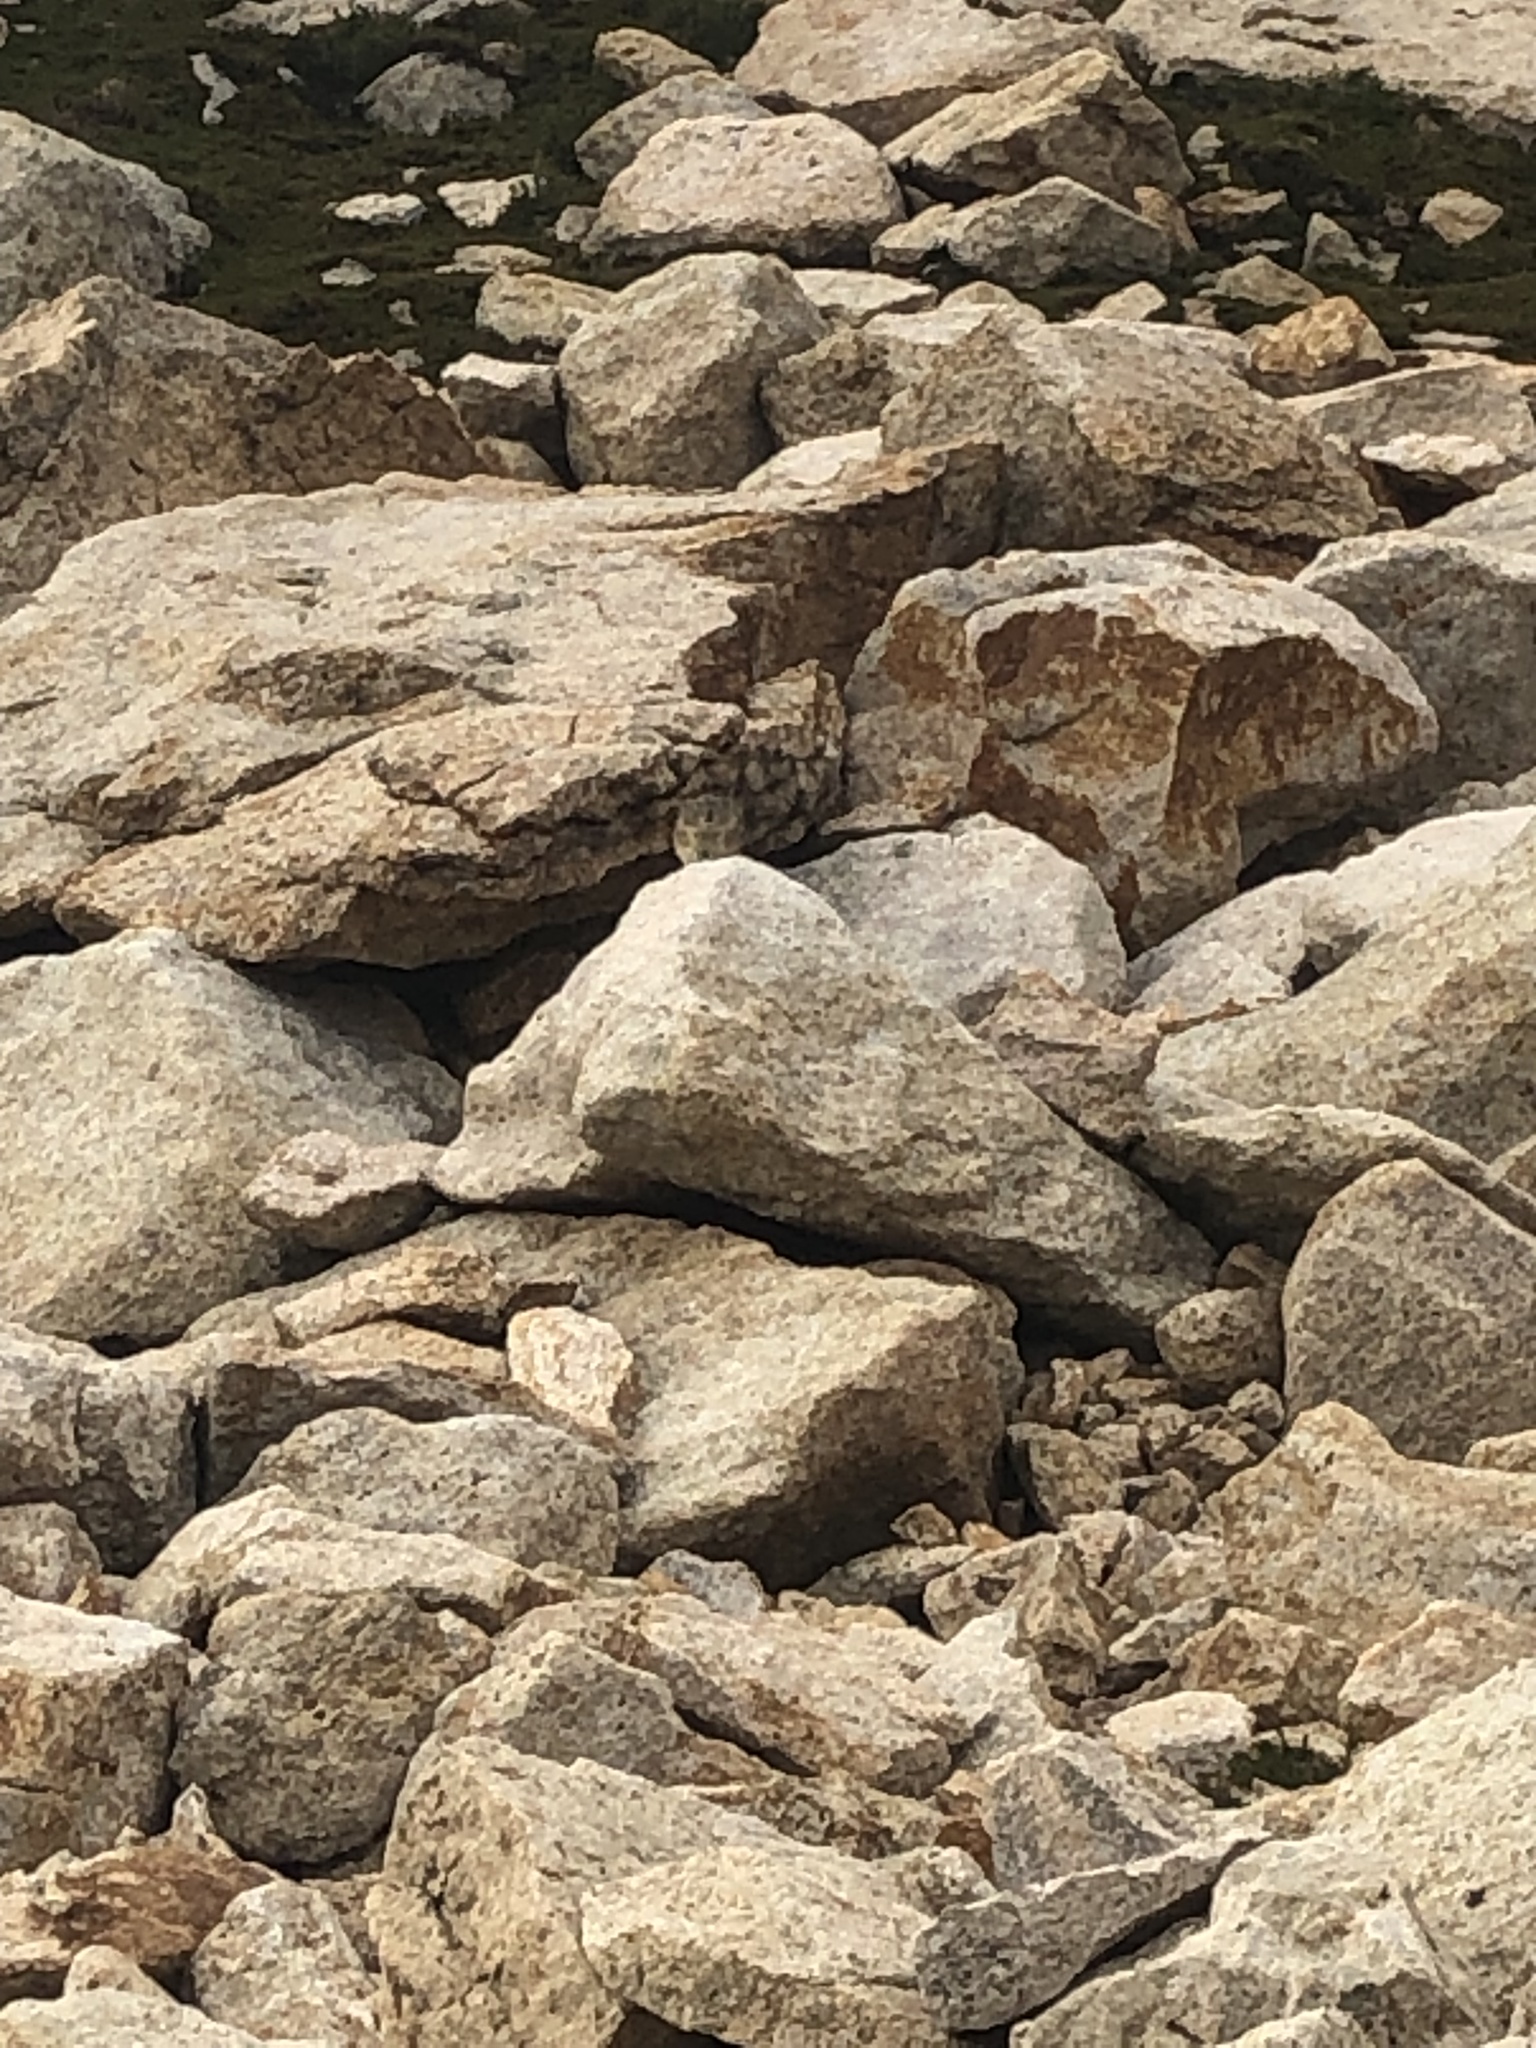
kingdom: Animalia
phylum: Chordata
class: Mammalia
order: Lagomorpha
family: Ochotonidae
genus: Ochotona
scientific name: Ochotona princeps
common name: American pika
